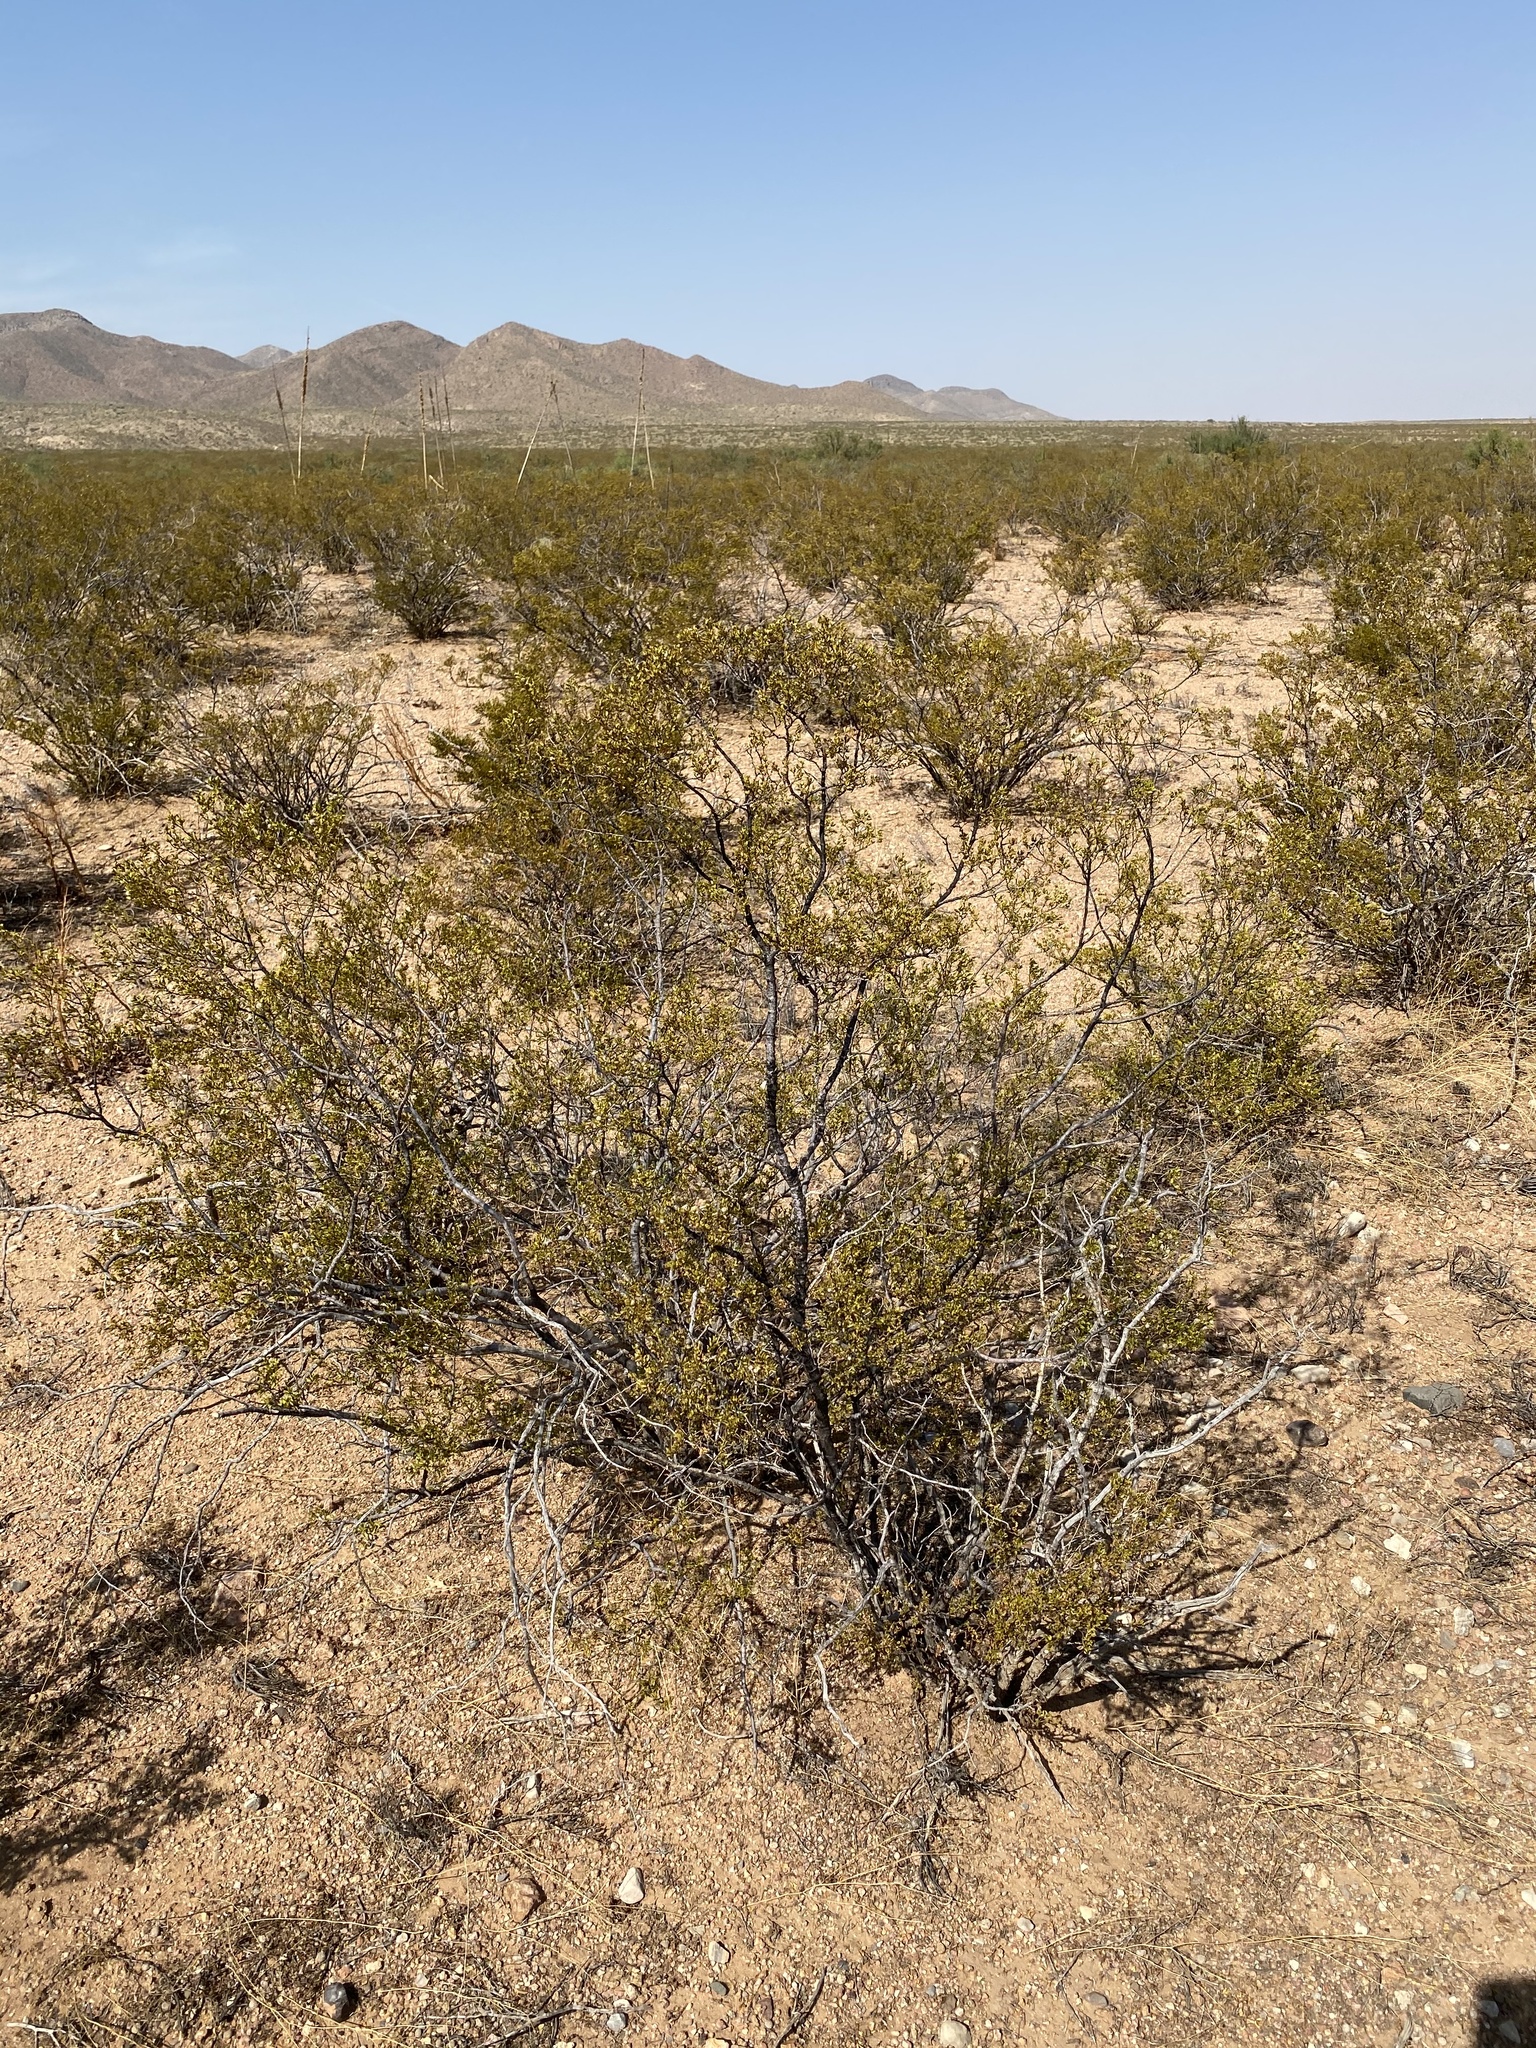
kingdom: Plantae
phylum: Tracheophyta
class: Magnoliopsida
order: Zygophyllales
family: Zygophyllaceae
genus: Larrea
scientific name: Larrea tridentata
